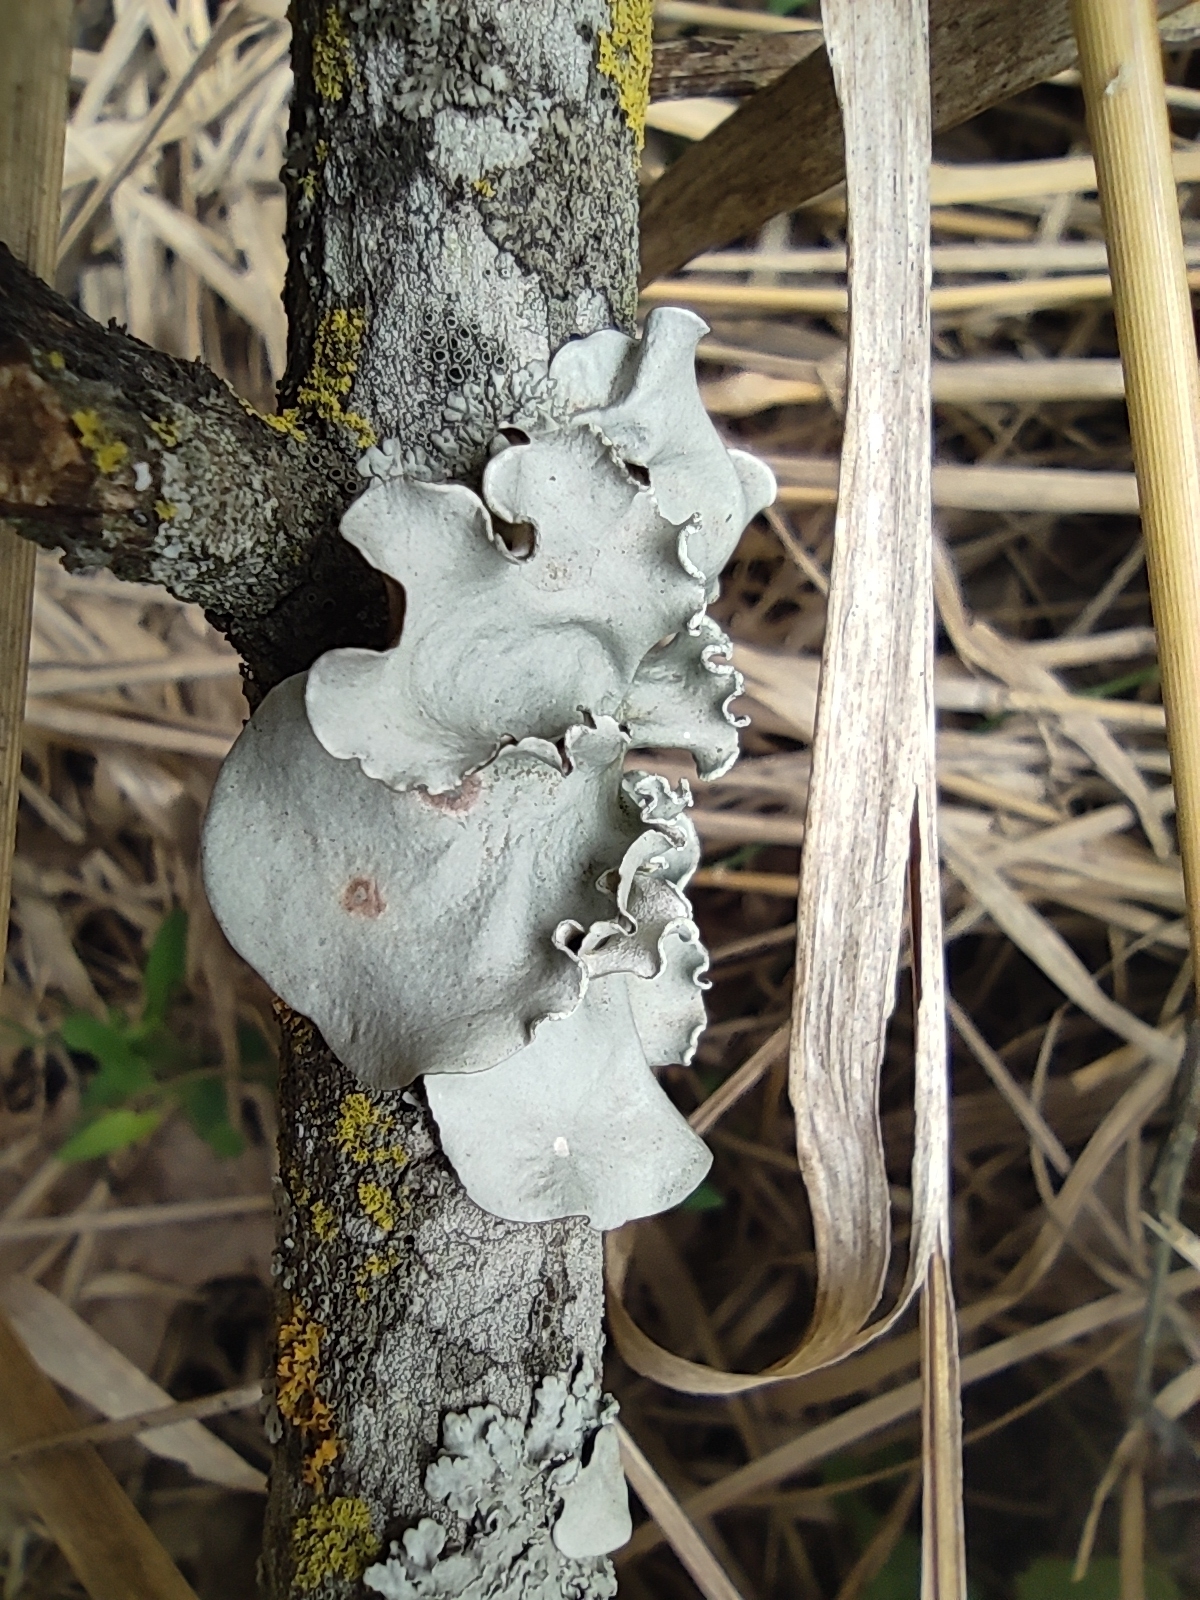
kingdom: Fungi
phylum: Ascomycota
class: Lecanoromycetes
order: Lecanorales
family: Parmeliaceae
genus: Parmotrema
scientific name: Parmotrema austrosinense
